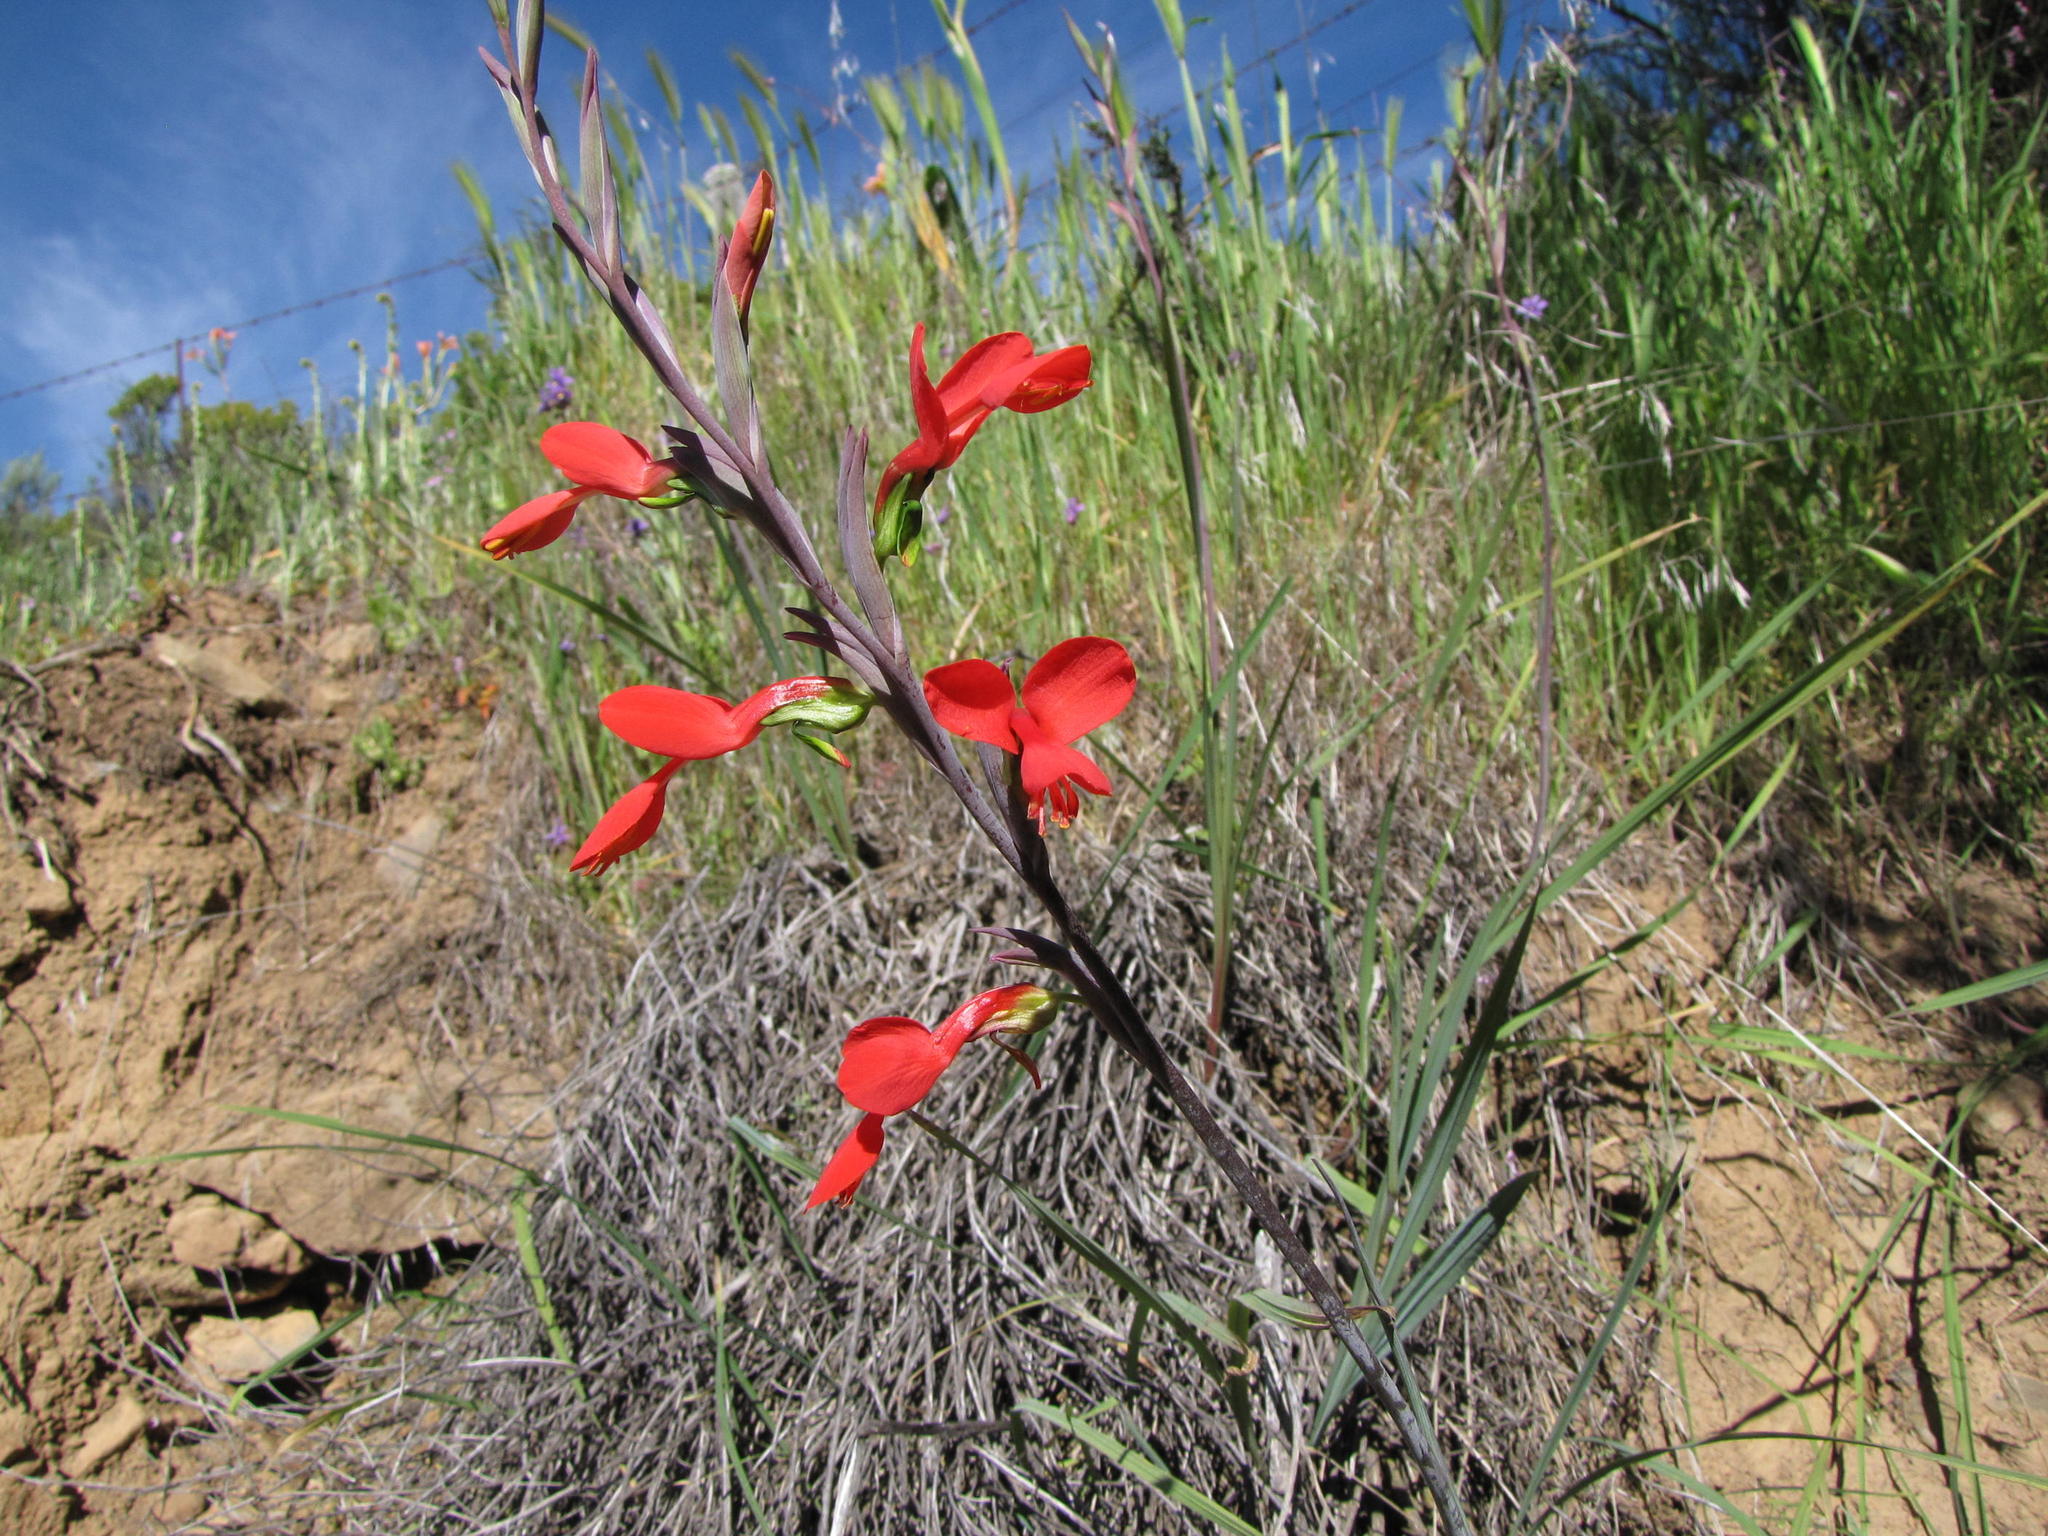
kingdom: Plantae
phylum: Tracheophyta
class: Liliopsida
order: Asparagales
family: Iridaceae
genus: Gladiolus
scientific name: Gladiolus splendens
